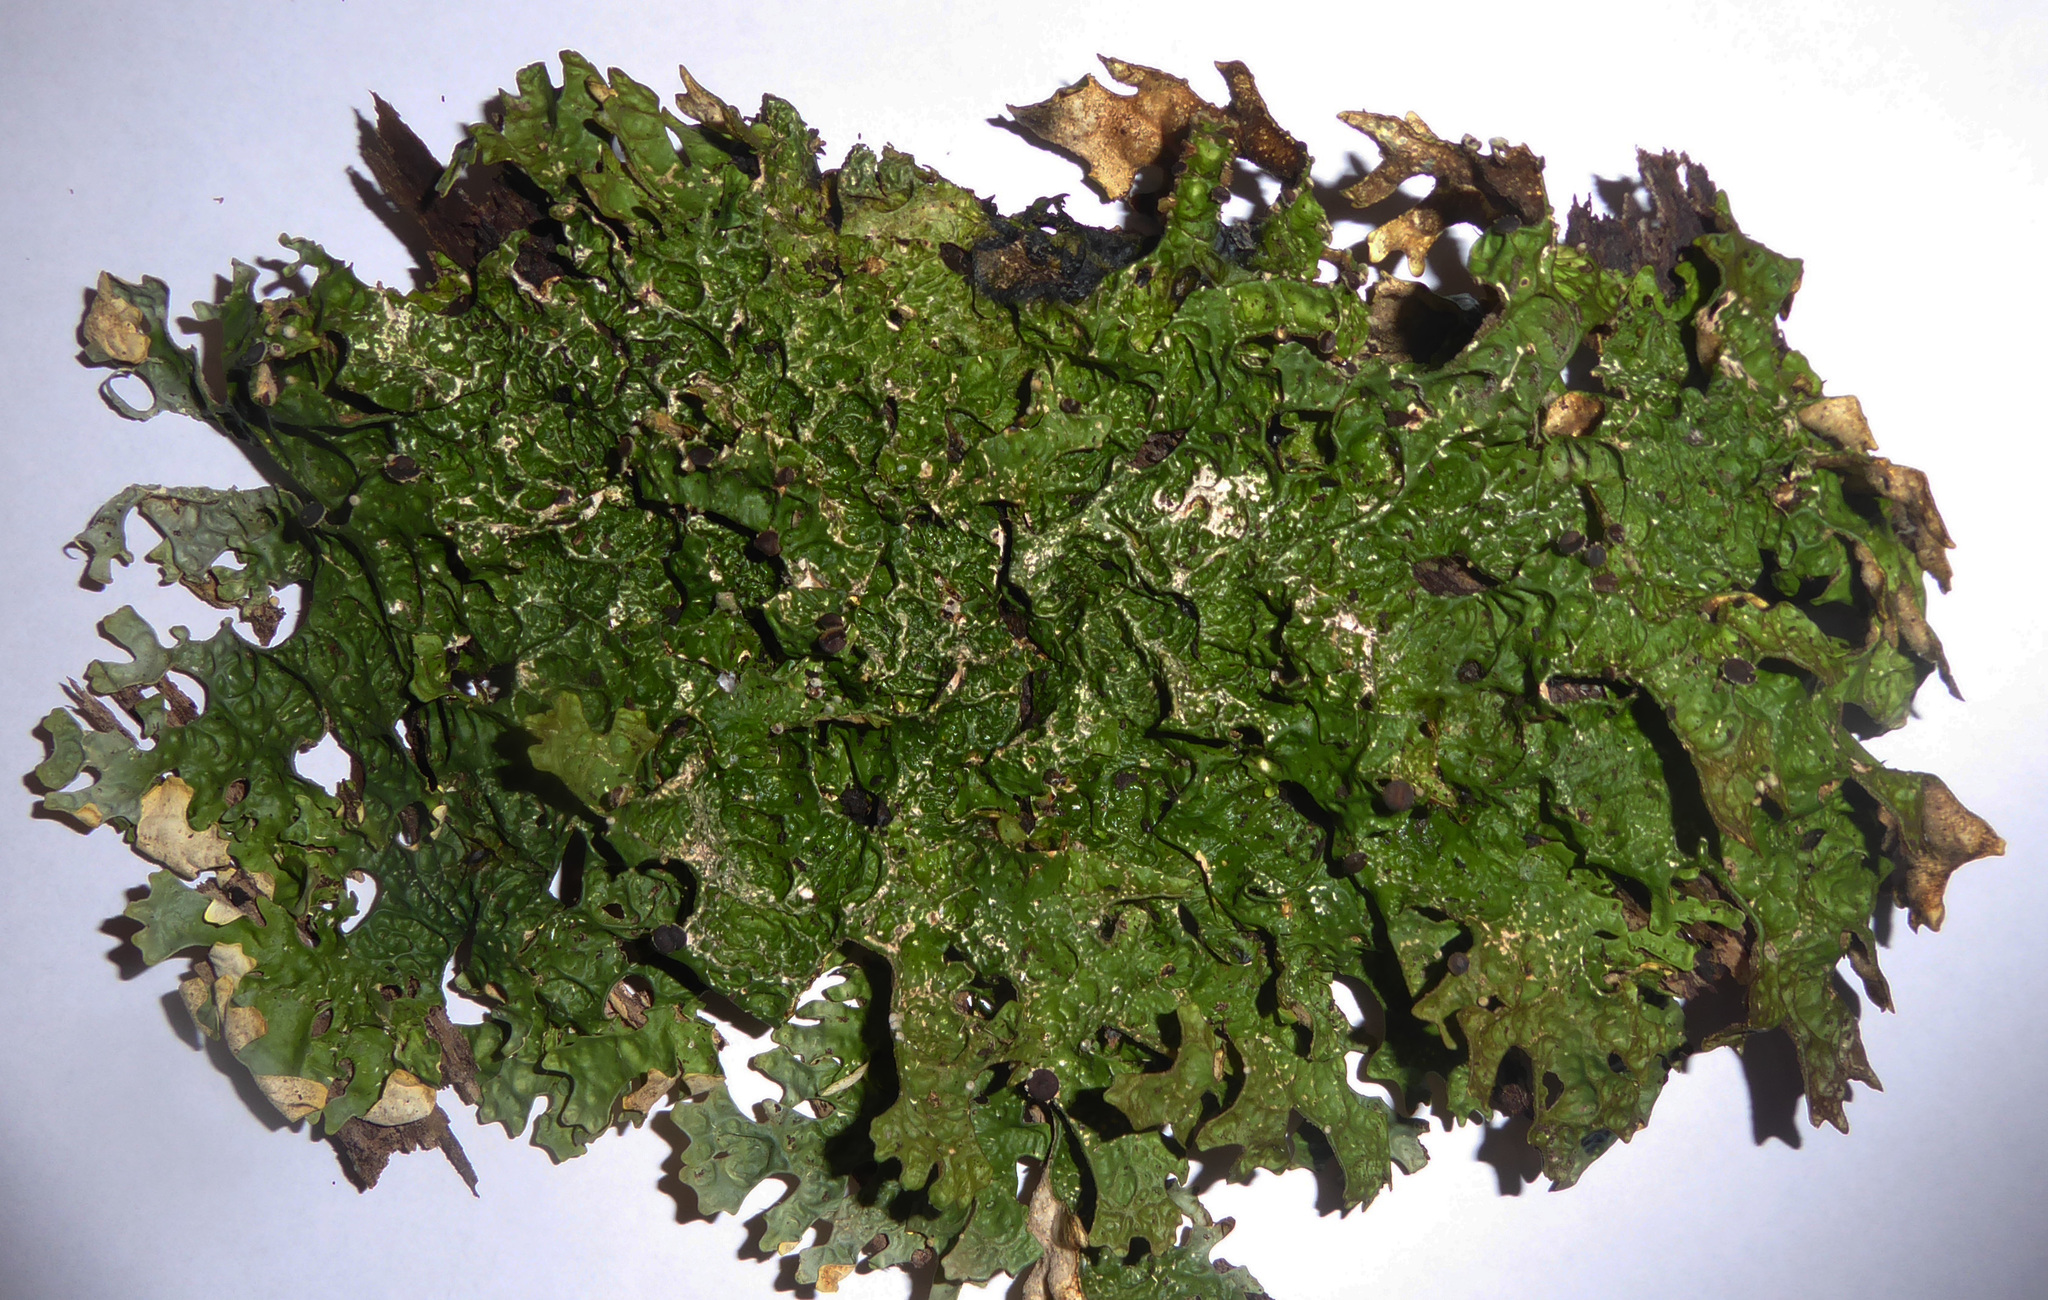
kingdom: Fungi
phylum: Ascomycota
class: Lecanoromycetes
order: Peltigerales
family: Lobariaceae
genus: Pseudocyphellaria
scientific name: Pseudocyphellaria carpoloma
